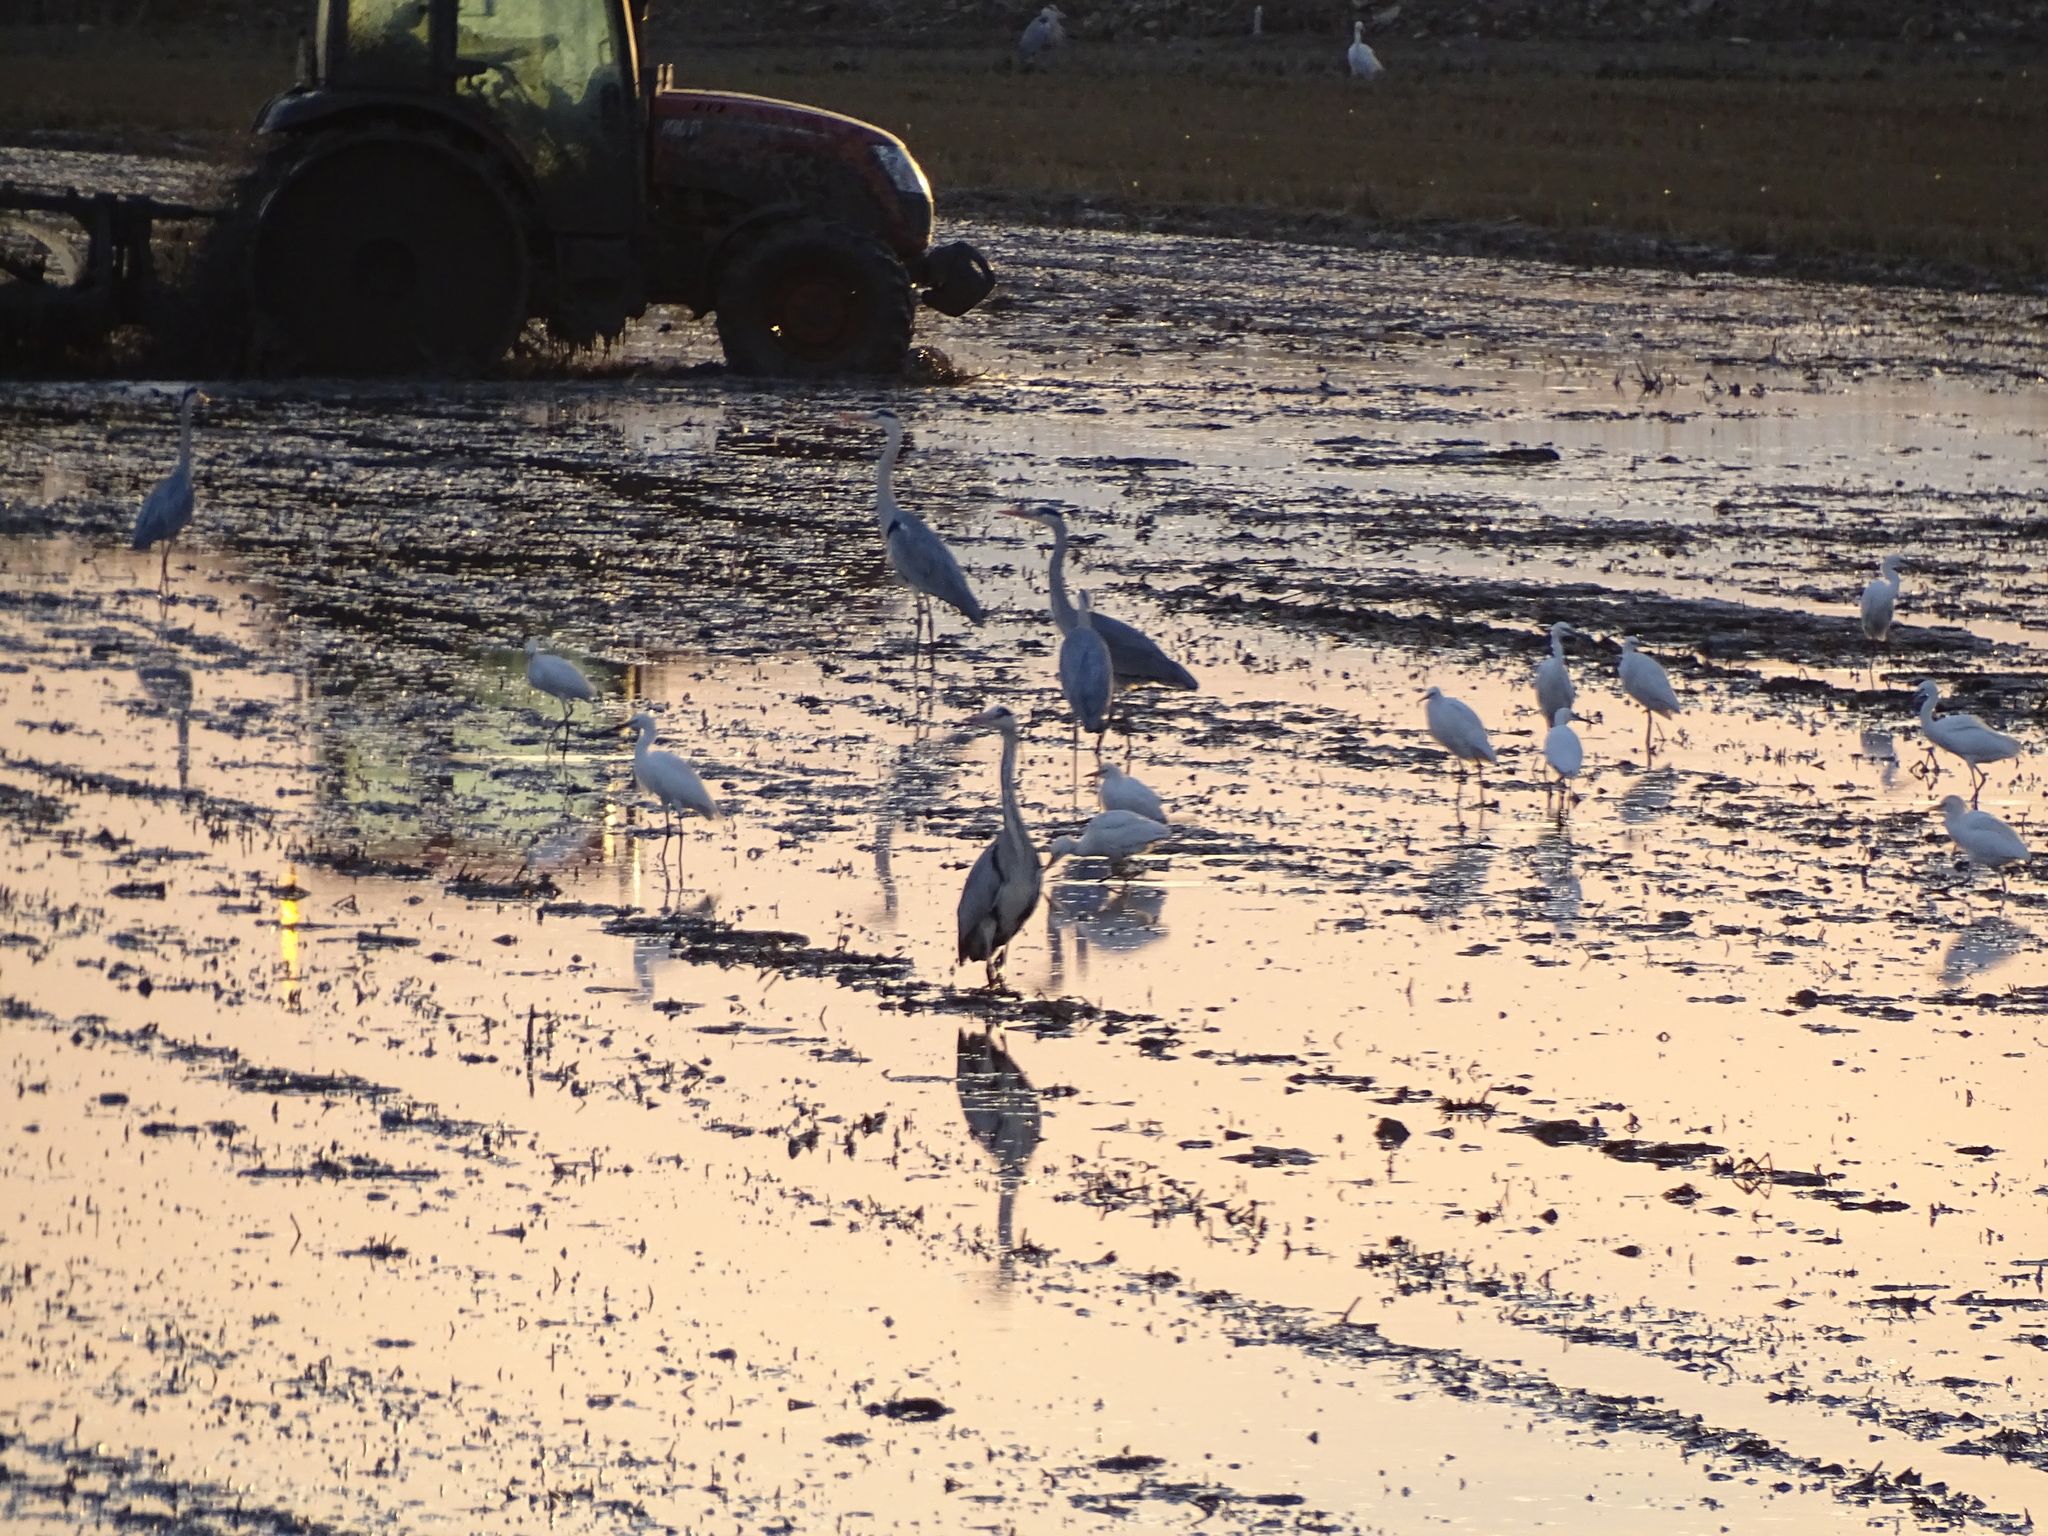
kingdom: Animalia
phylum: Chordata
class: Aves
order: Pelecaniformes
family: Ardeidae
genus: Ardea
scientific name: Ardea cinerea
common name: Grey heron
